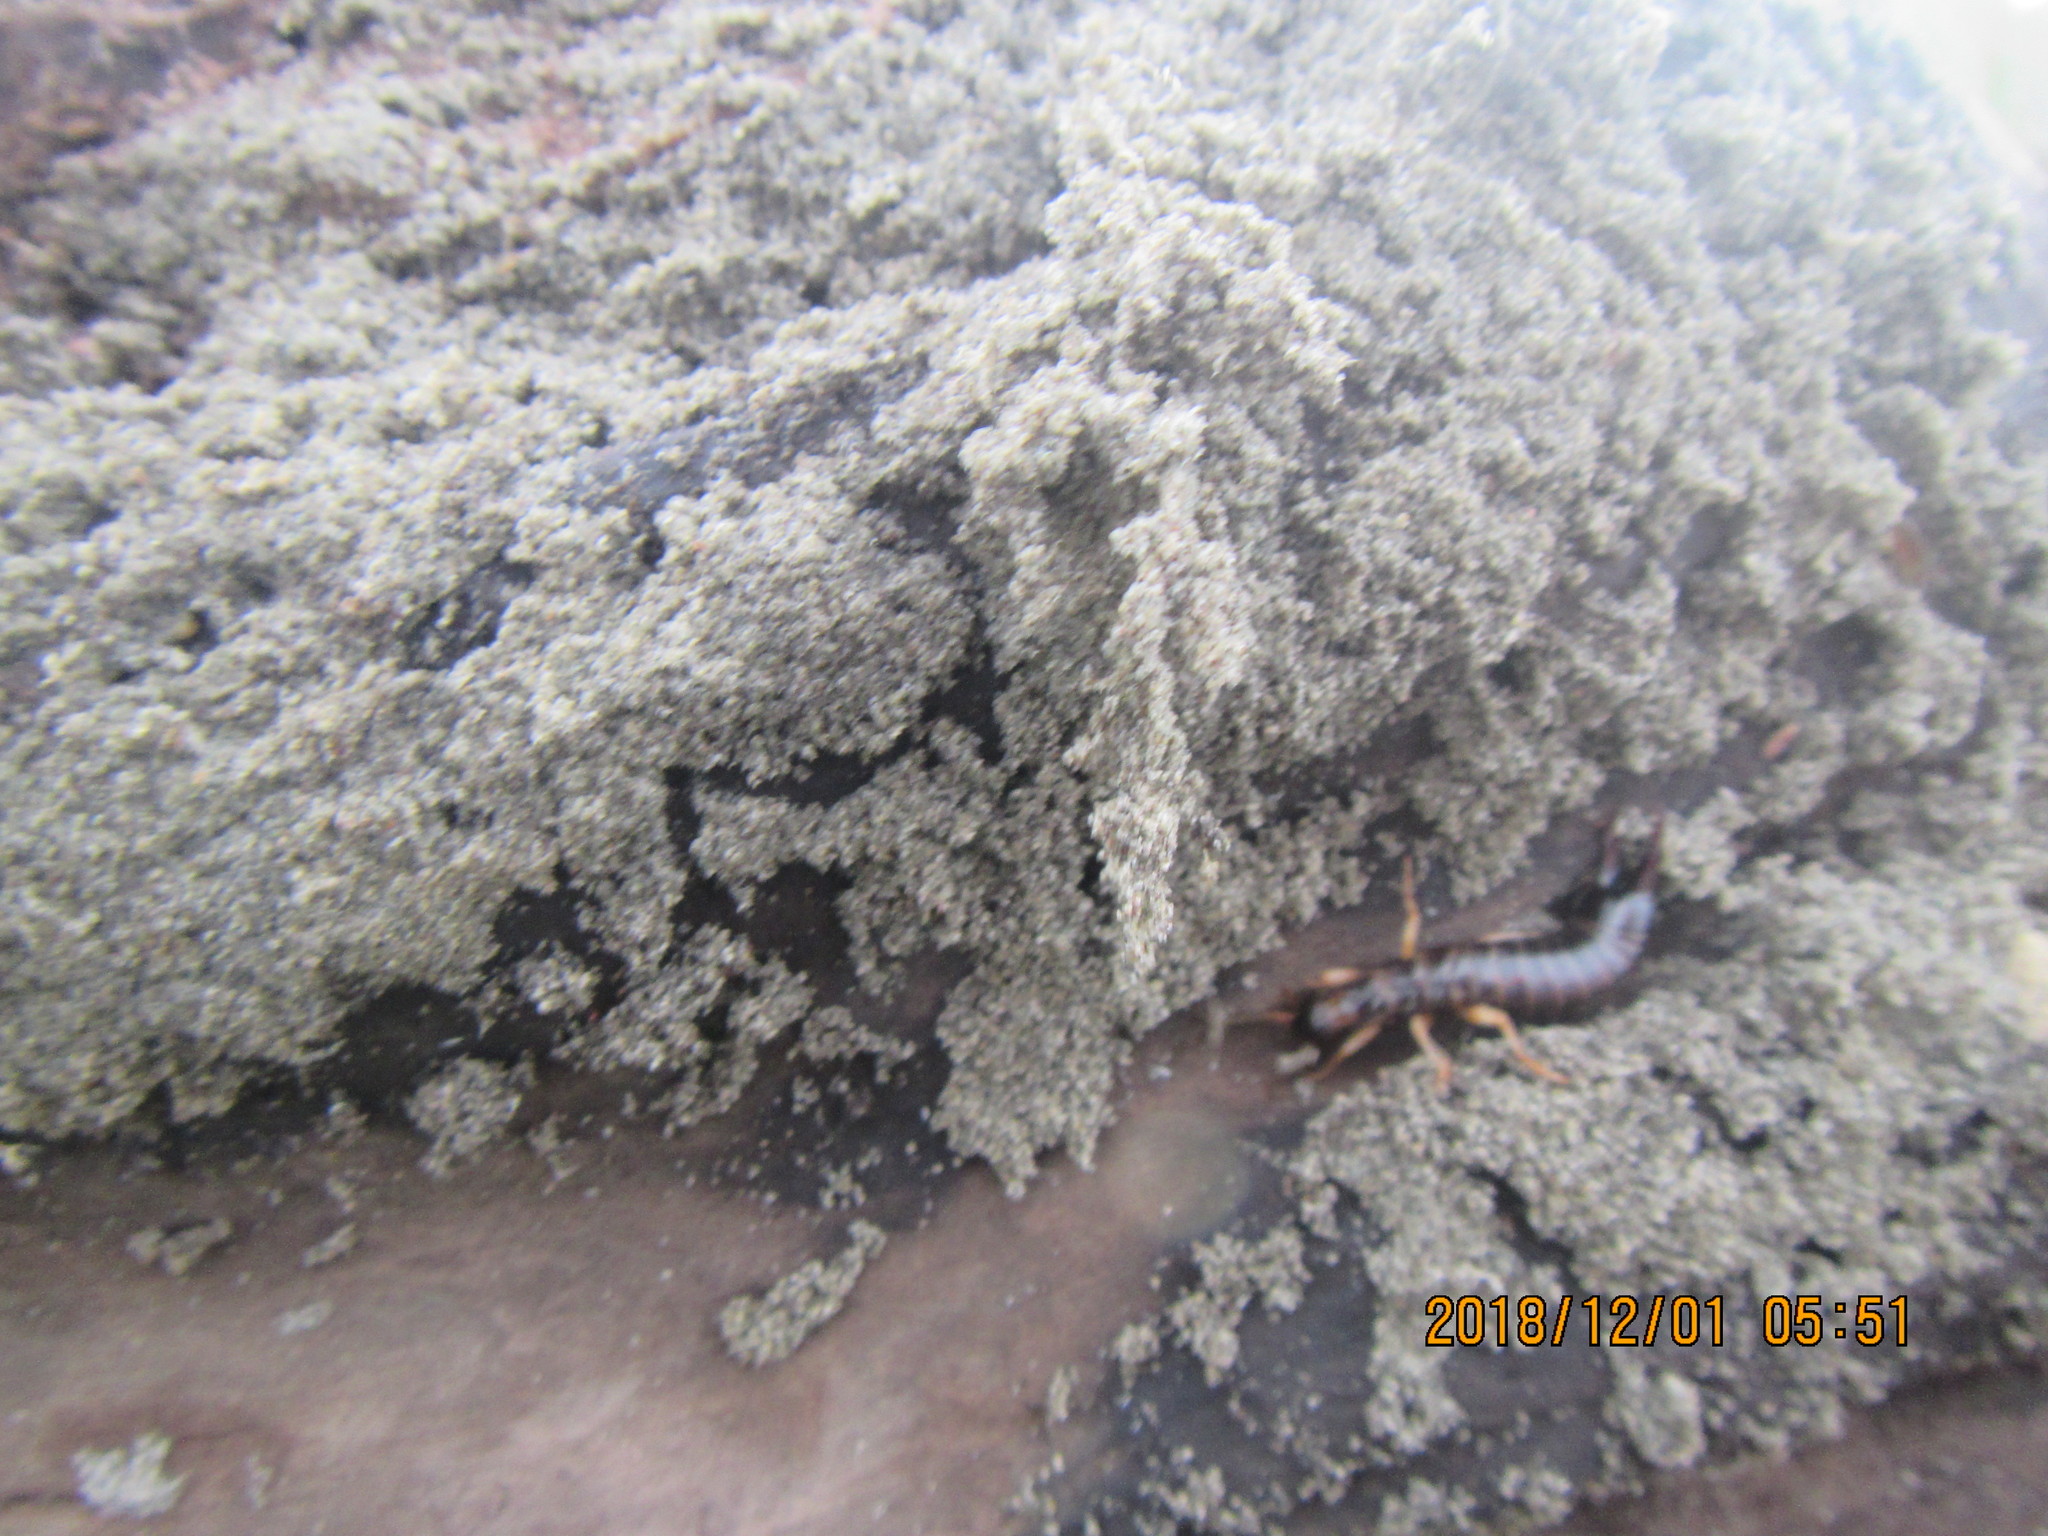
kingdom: Animalia
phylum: Arthropoda
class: Insecta
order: Dermaptera
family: Anisolabididae
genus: Anisolabis
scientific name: Anisolabis littorea
